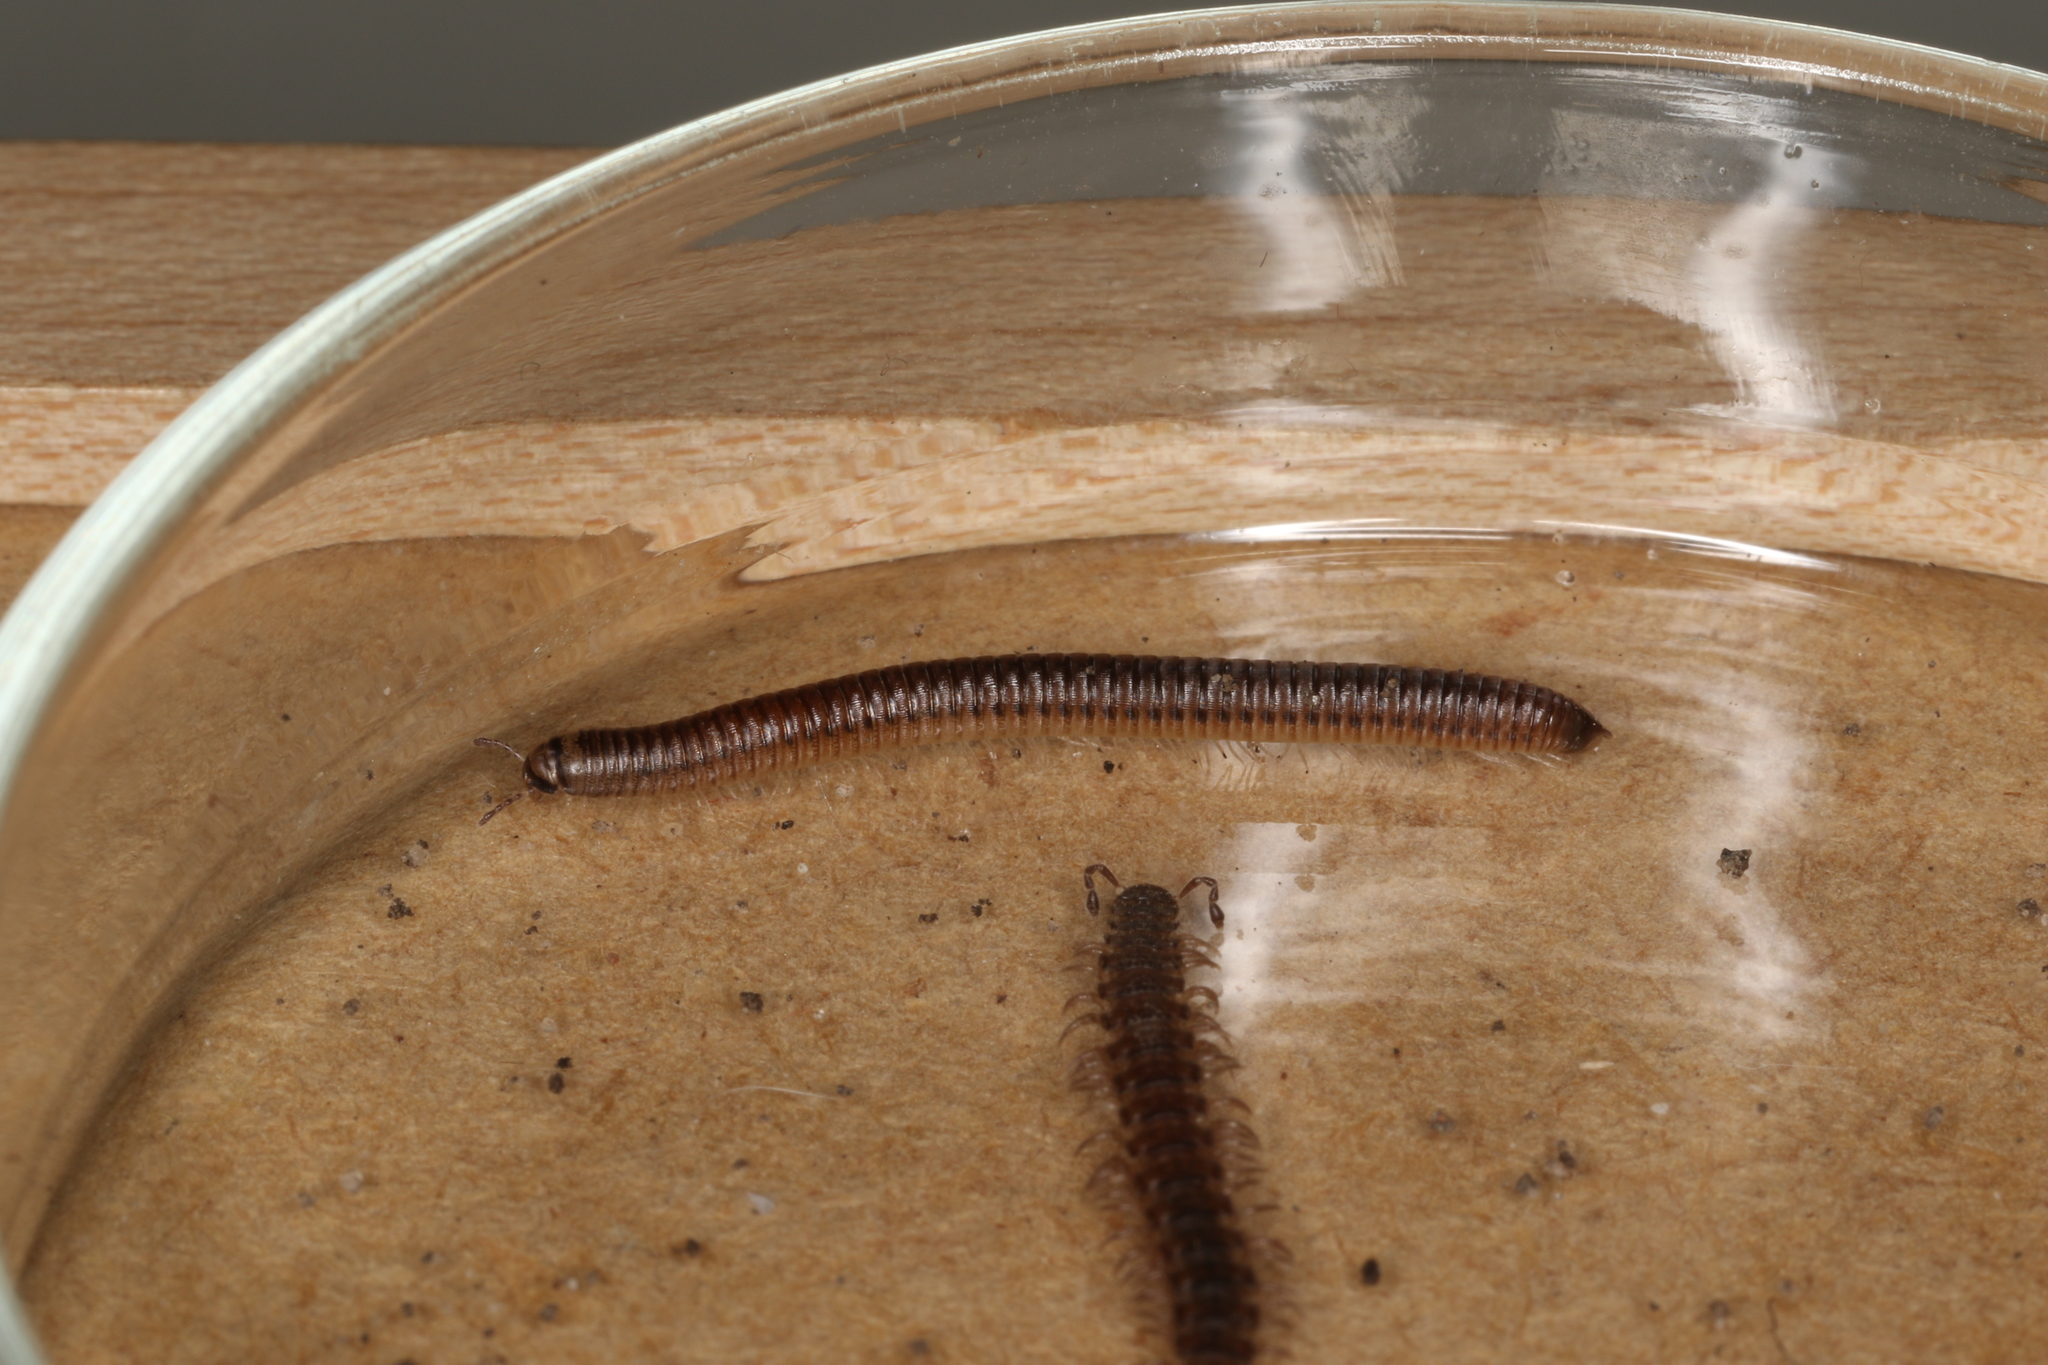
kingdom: Animalia
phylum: Arthropoda
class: Diplopoda
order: Julida
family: Julidae
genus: Cylindroiulus
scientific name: Cylindroiulus punctatus
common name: Blunt-tailed millipede
